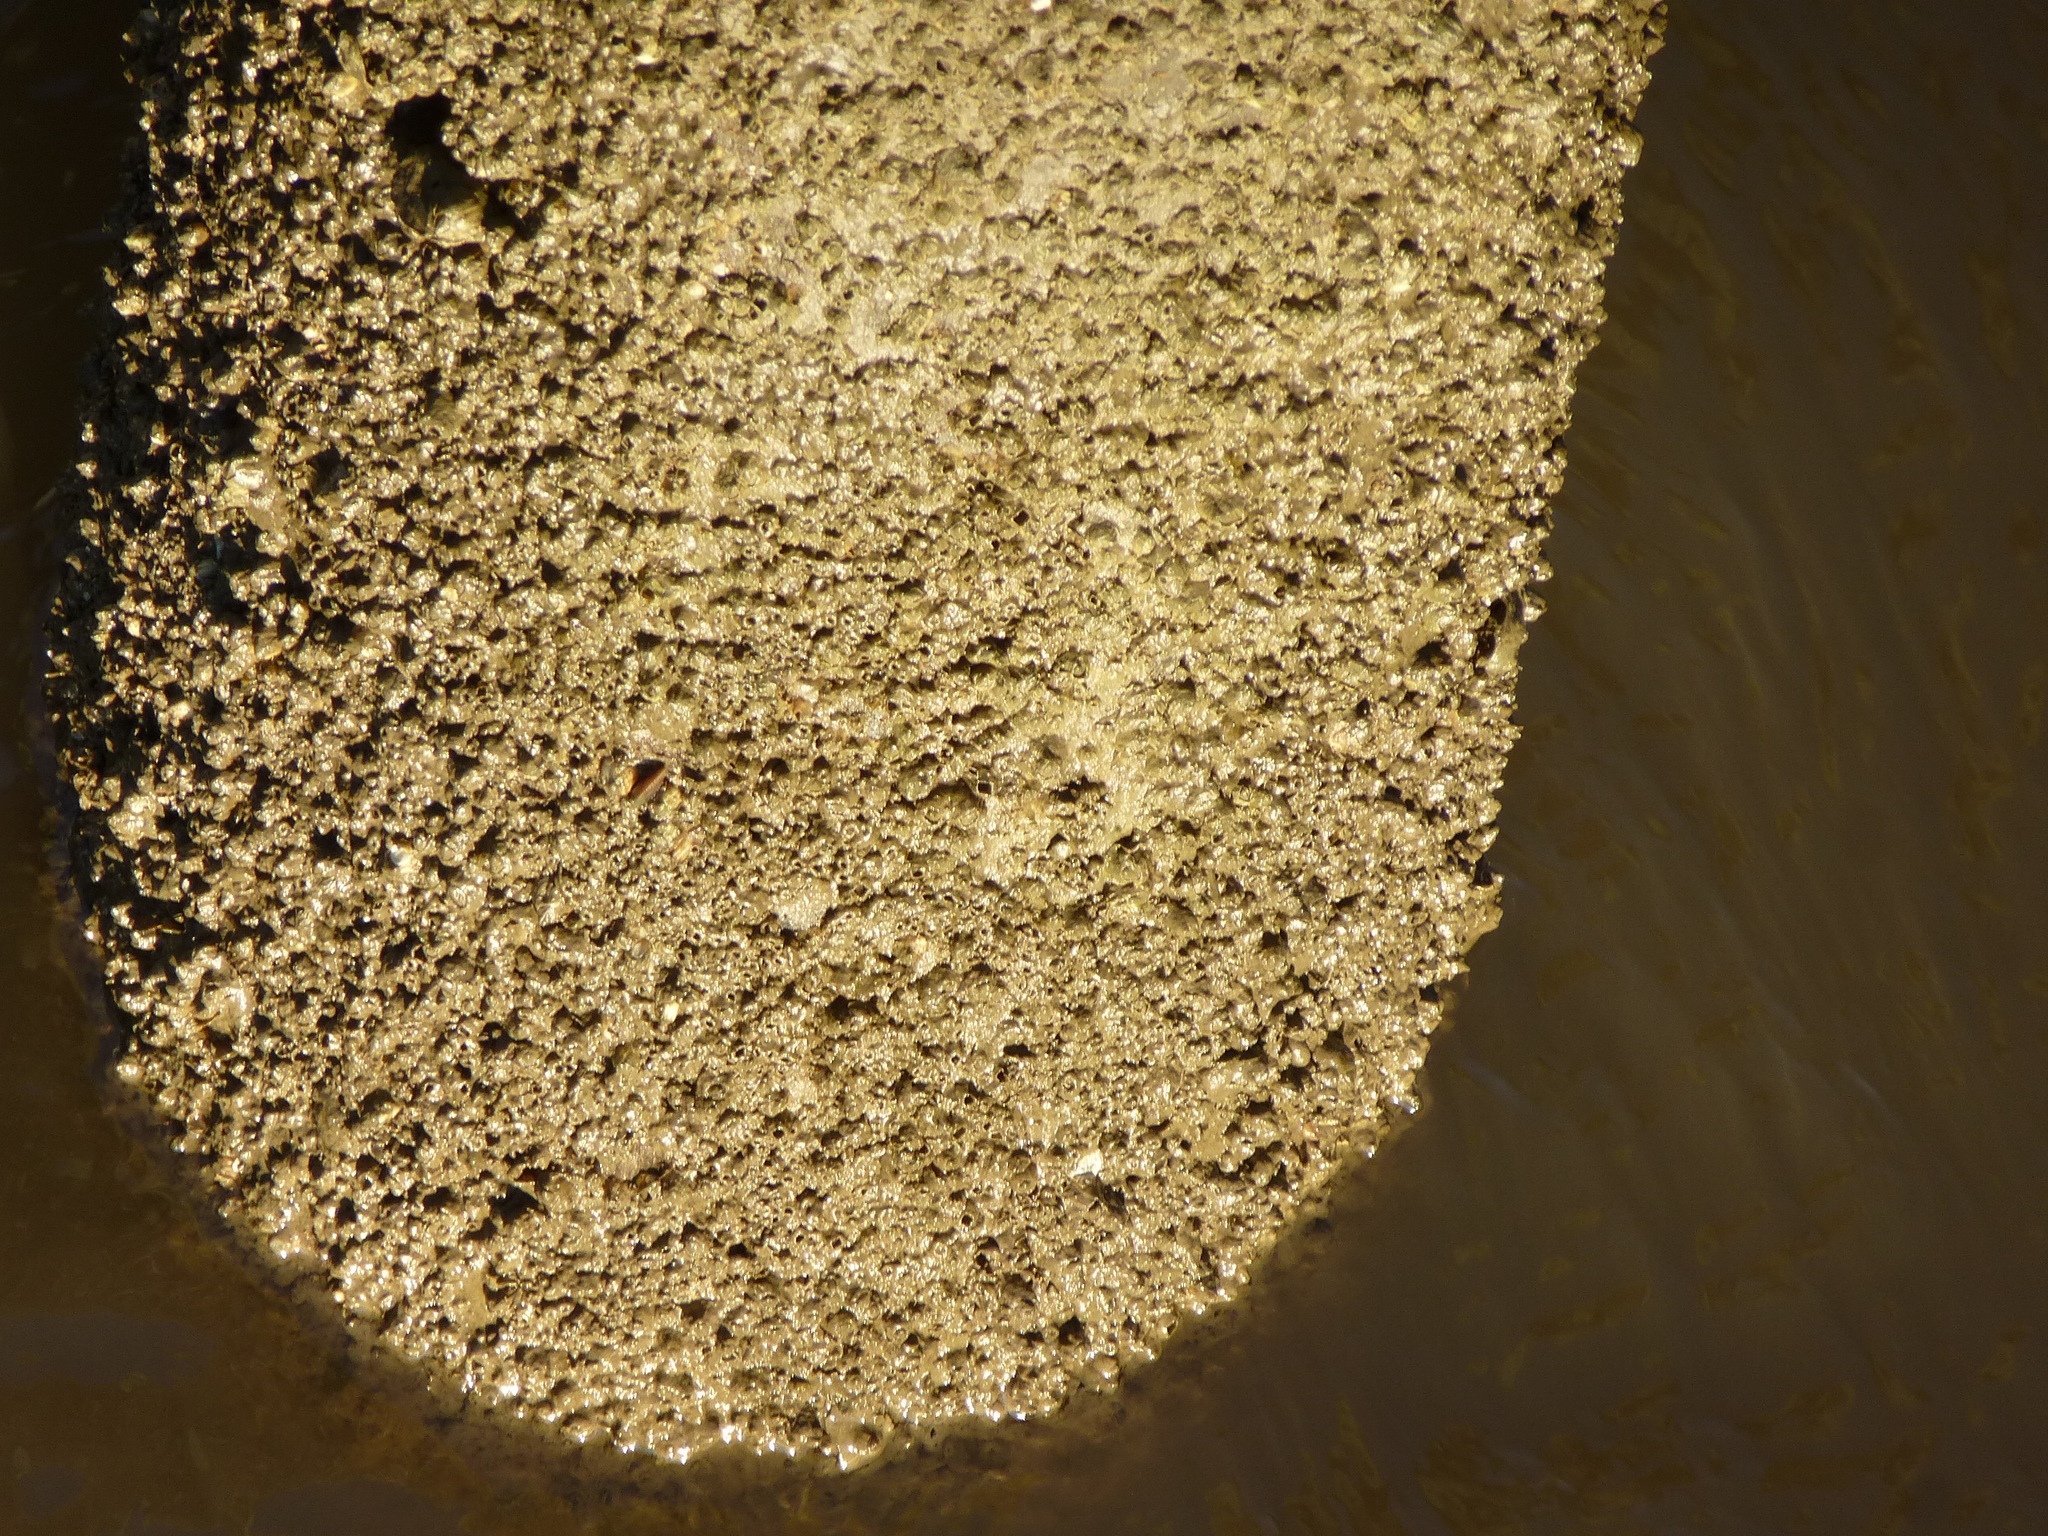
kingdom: Animalia
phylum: Arthropoda
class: Maxillopoda
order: Sessilia
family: Balanidae
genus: Amphibalanus
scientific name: Amphibalanus improvisus
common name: Bay barnacle
